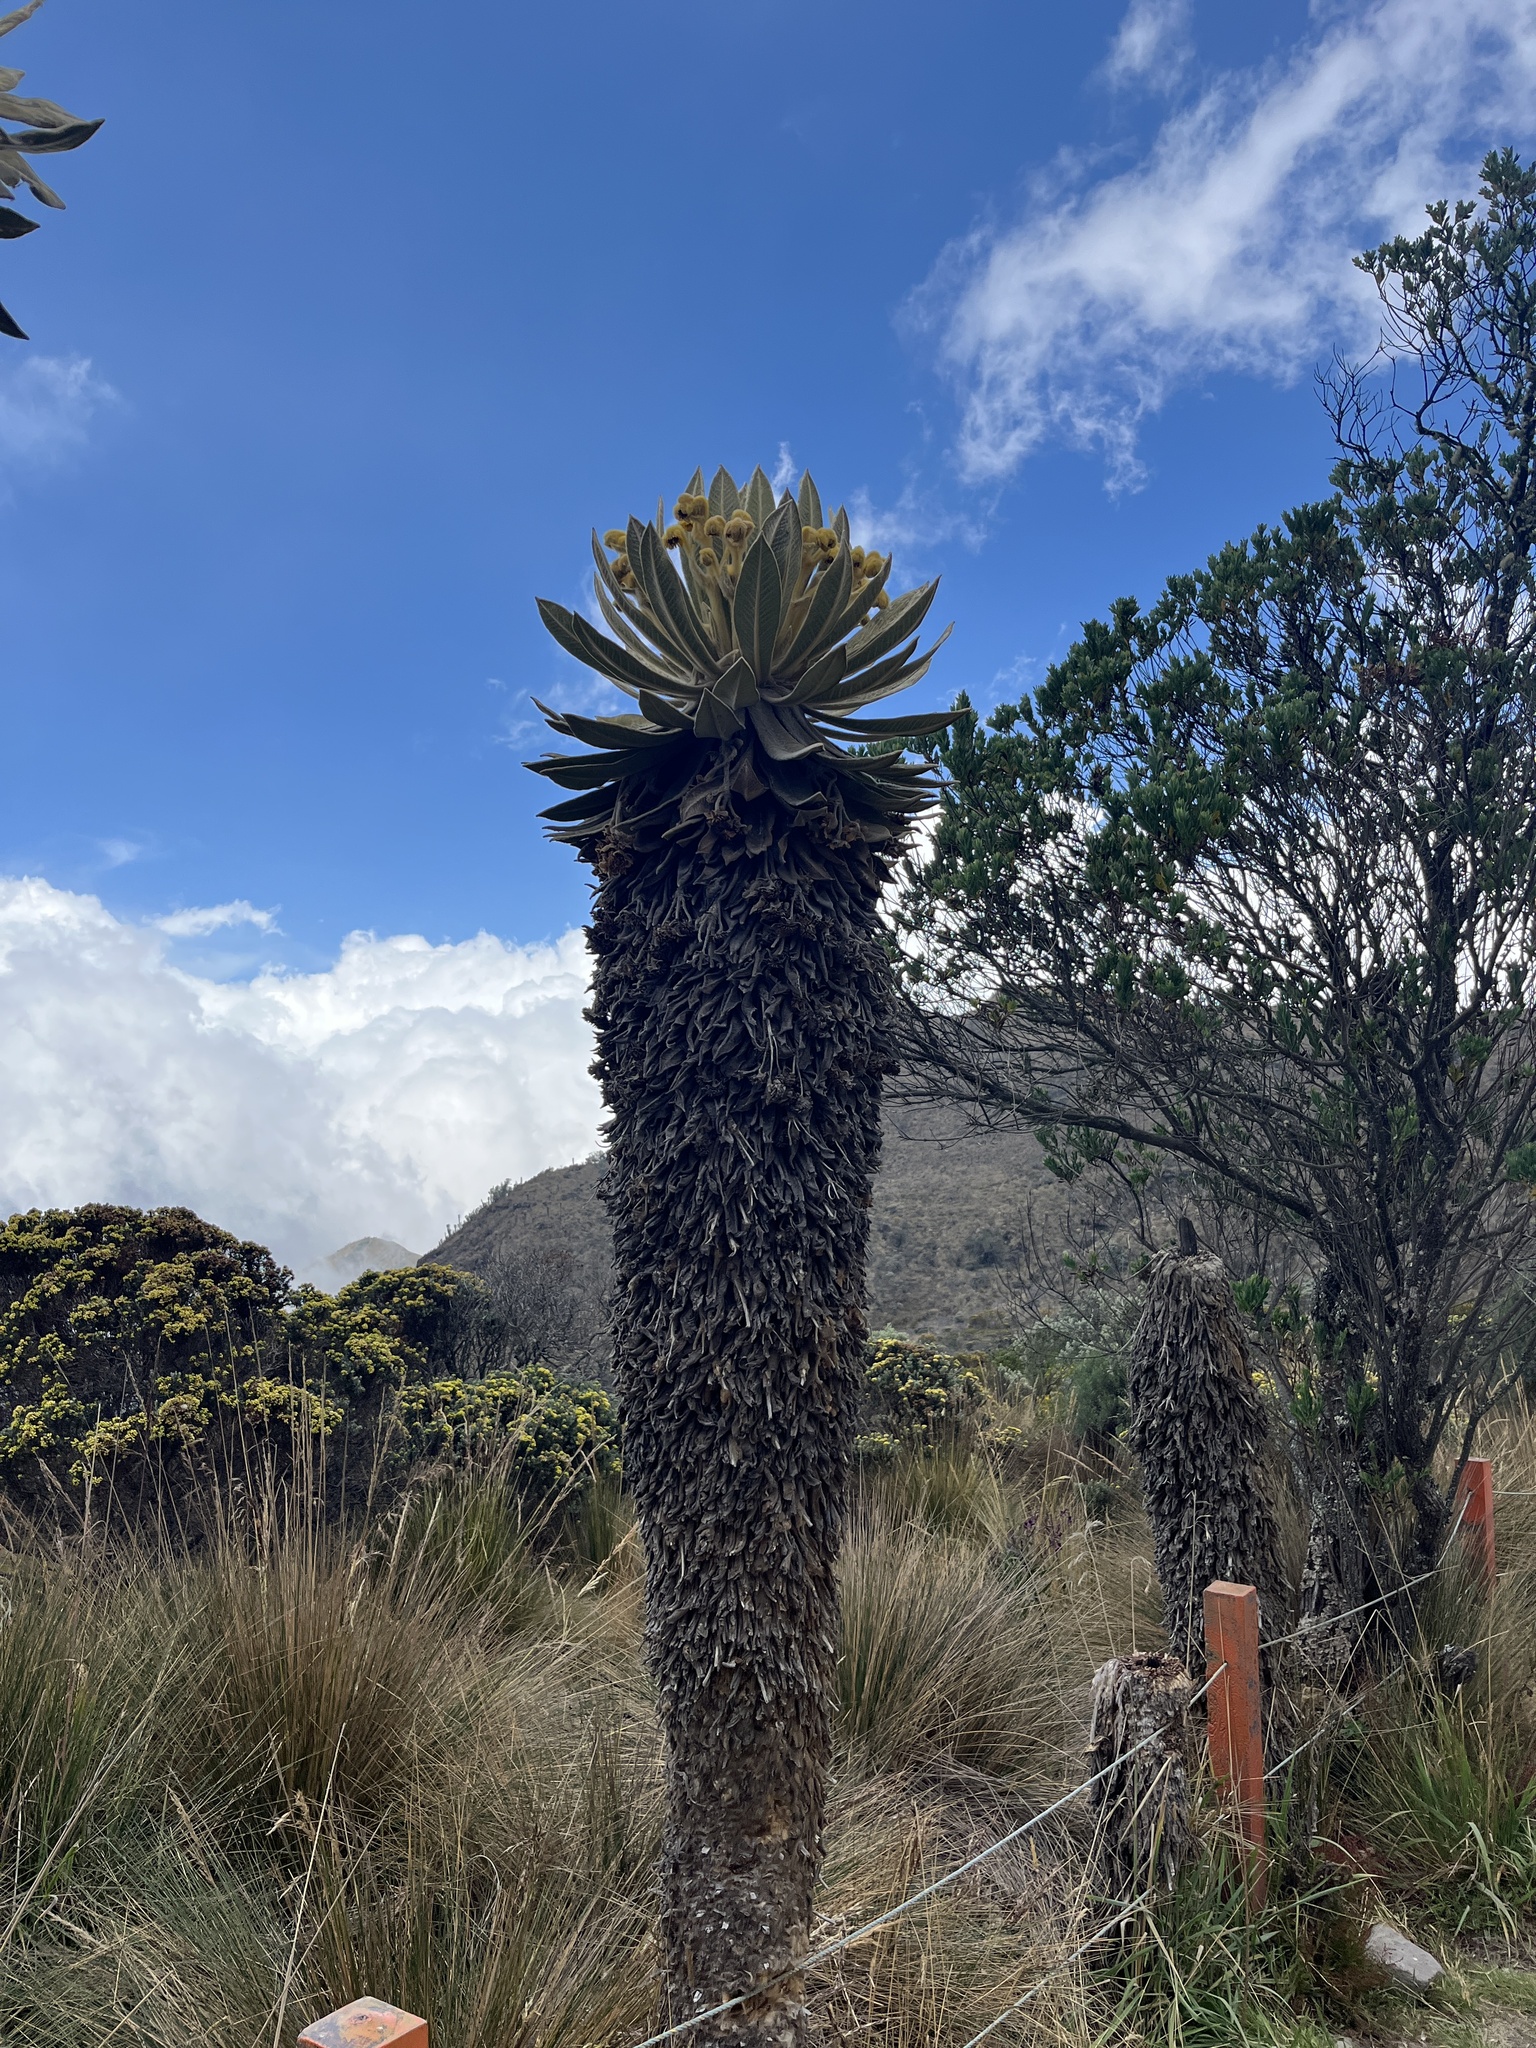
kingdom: Plantae
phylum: Tracheophyta
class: Magnoliopsida
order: Asterales
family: Asteraceae
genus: Espeletia
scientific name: Espeletia hartwegiana
